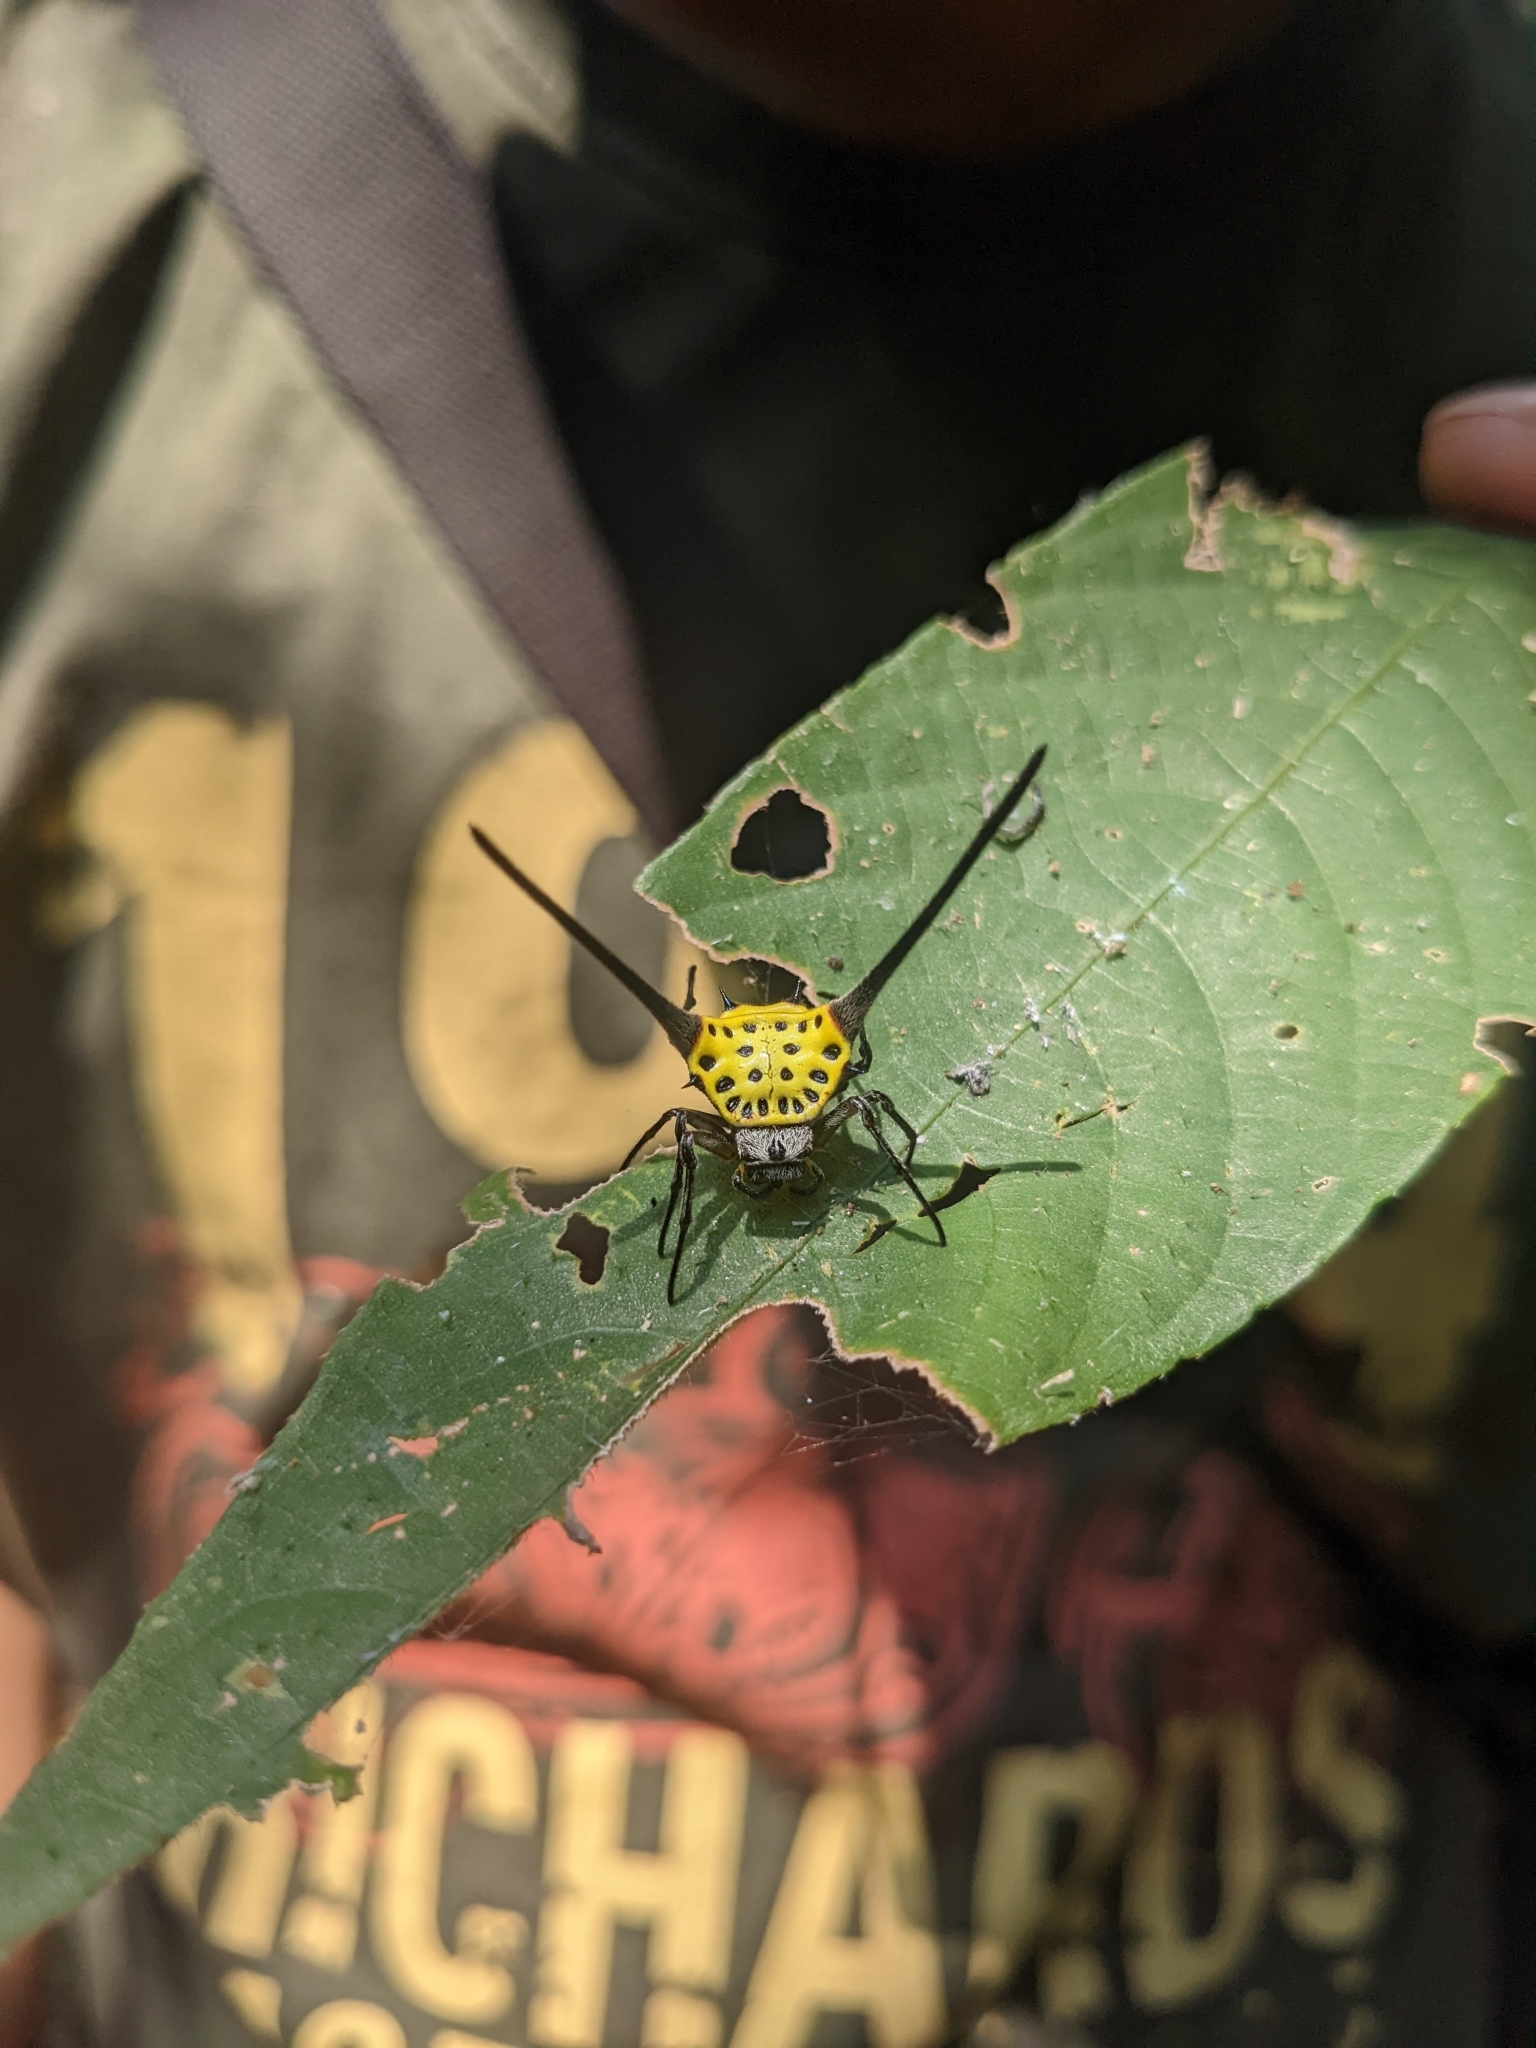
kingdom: Animalia
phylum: Arthropoda
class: Arachnida
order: Araneae
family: Araneidae
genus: Gasteracantha
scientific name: Gasteracantha dalyi
